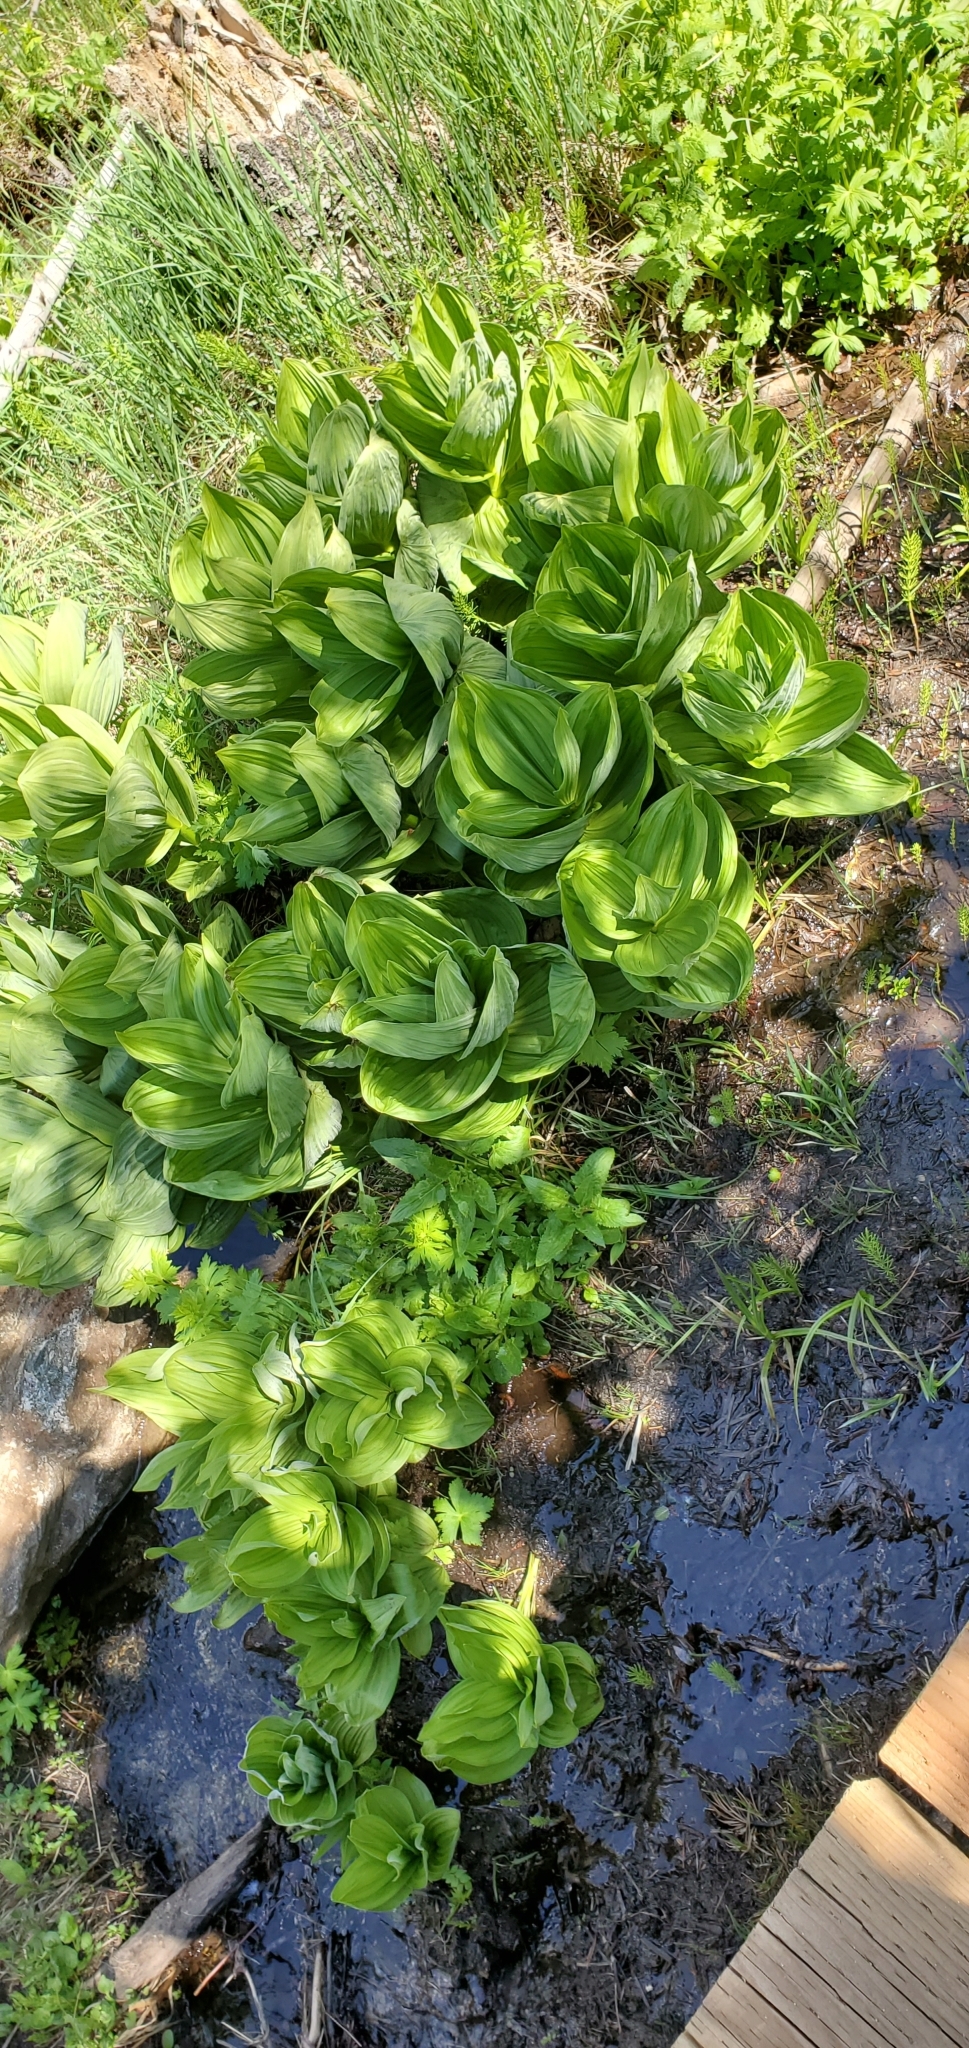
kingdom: Plantae
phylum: Tracheophyta
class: Liliopsida
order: Liliales
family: Melanthiaceae
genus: Veratrum
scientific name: Veratrum californicum
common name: California veratrum
